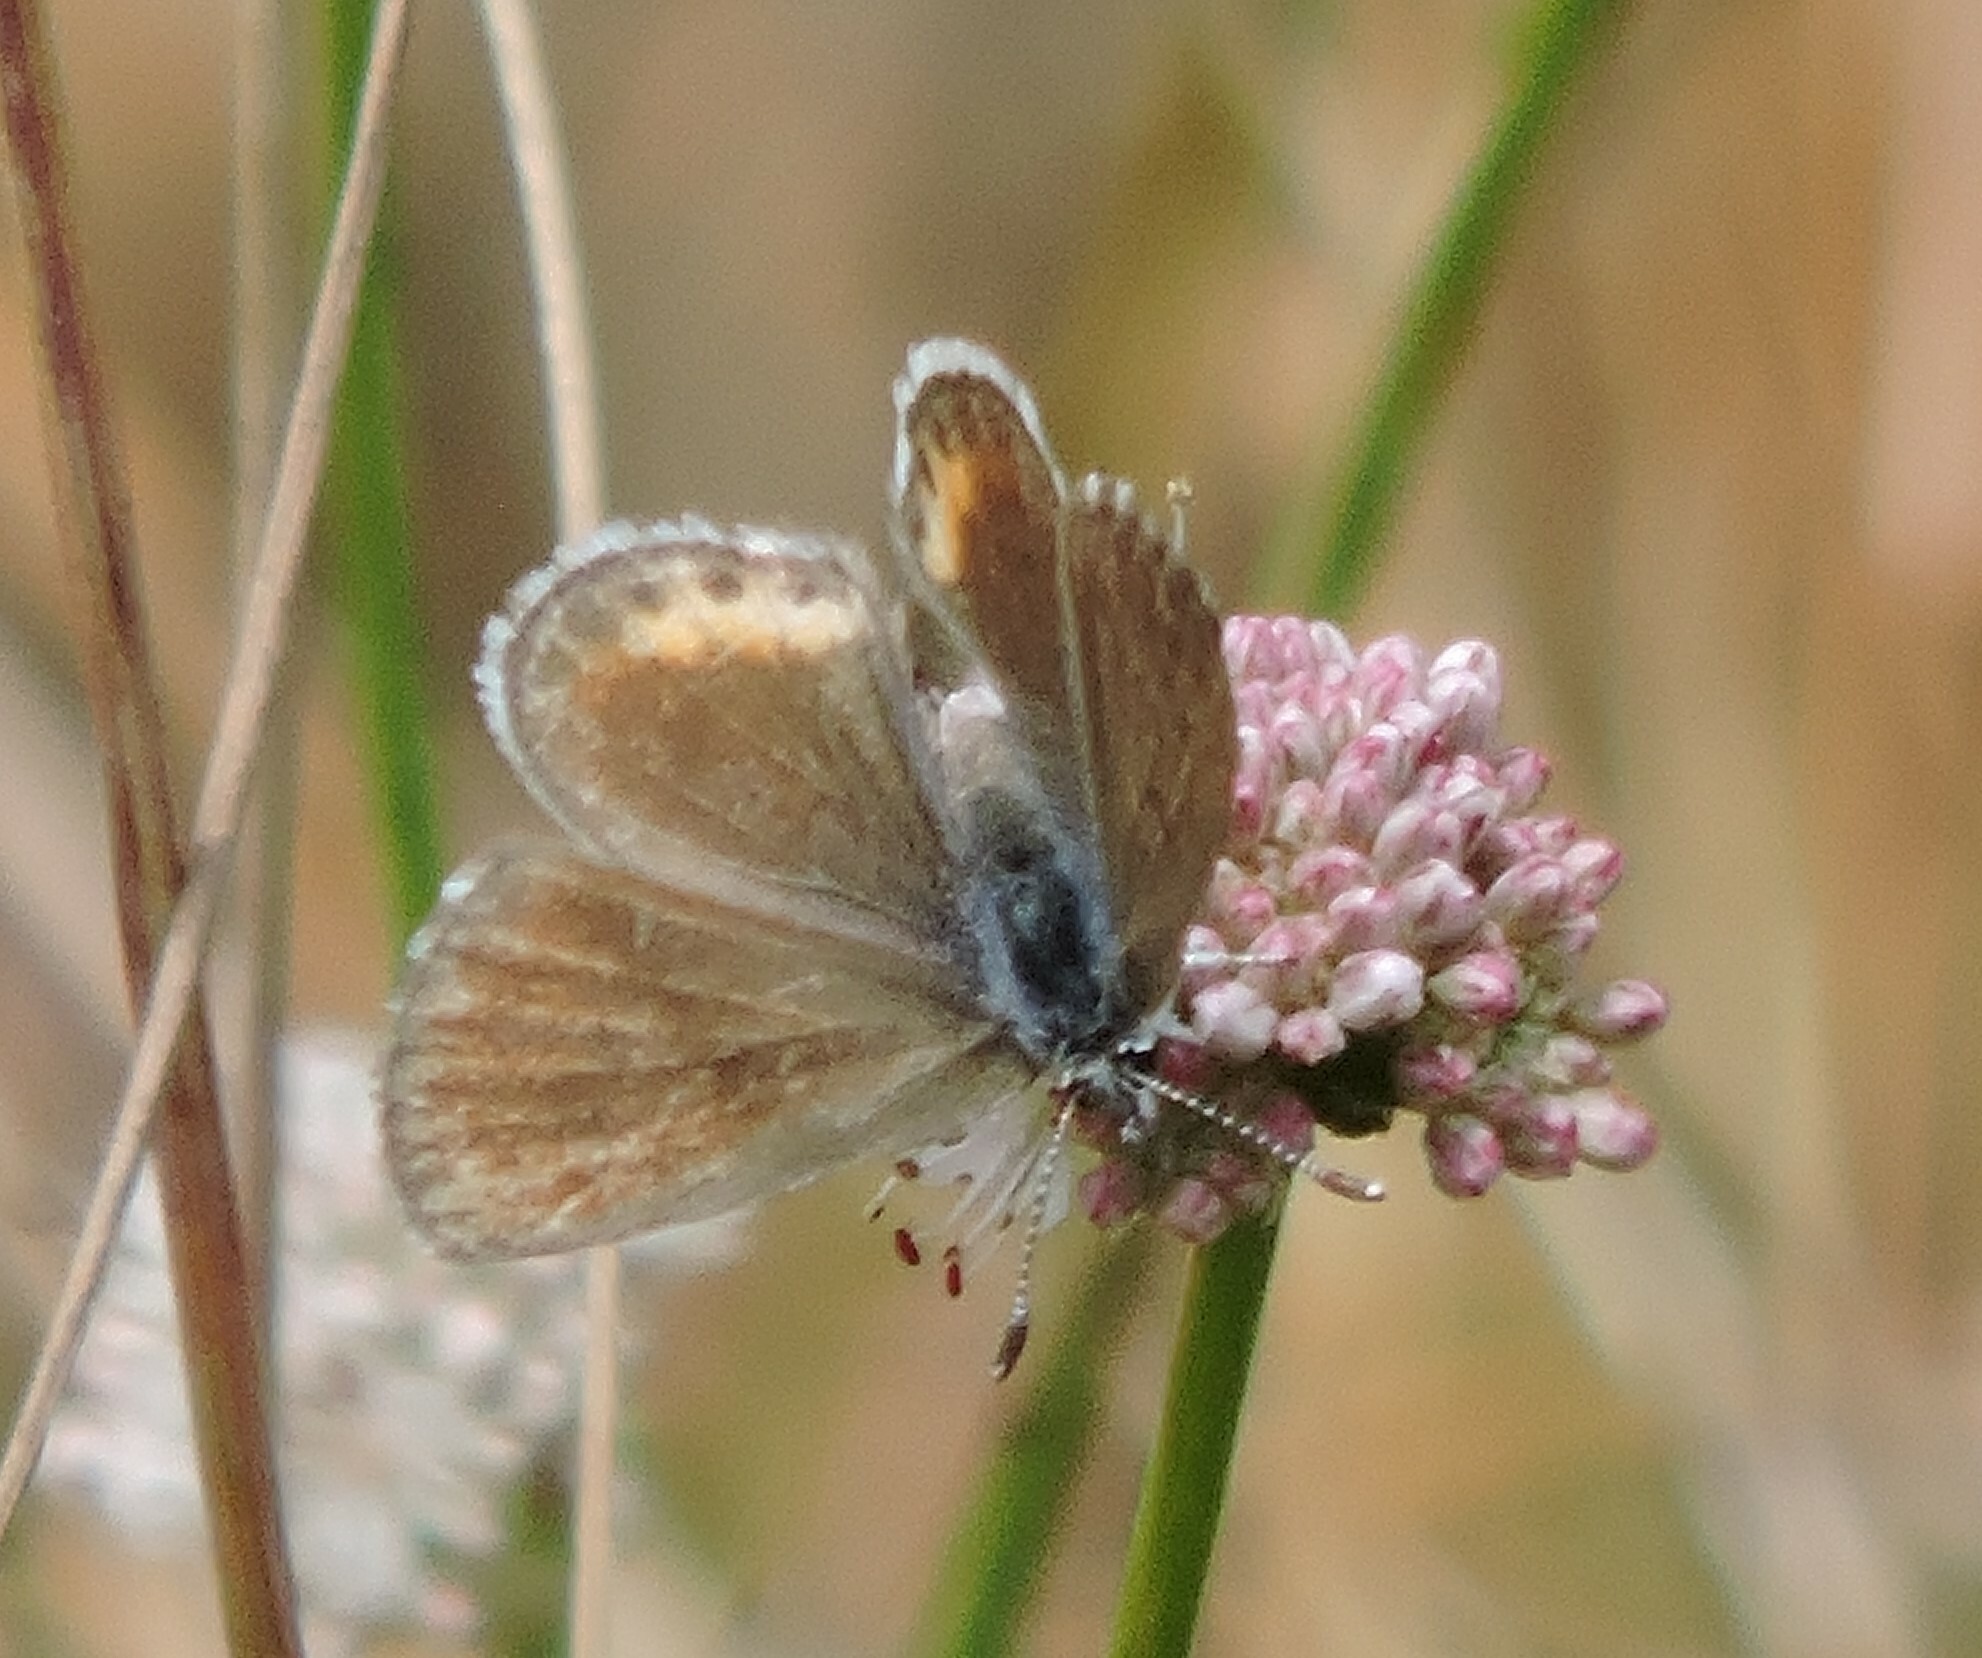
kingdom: Animalia
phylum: Arthropoda
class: Insecta
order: Lepidoptera
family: Lycaenidae
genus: Euphilotes
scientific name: Euphilotes enoptes
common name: Dotted blue
